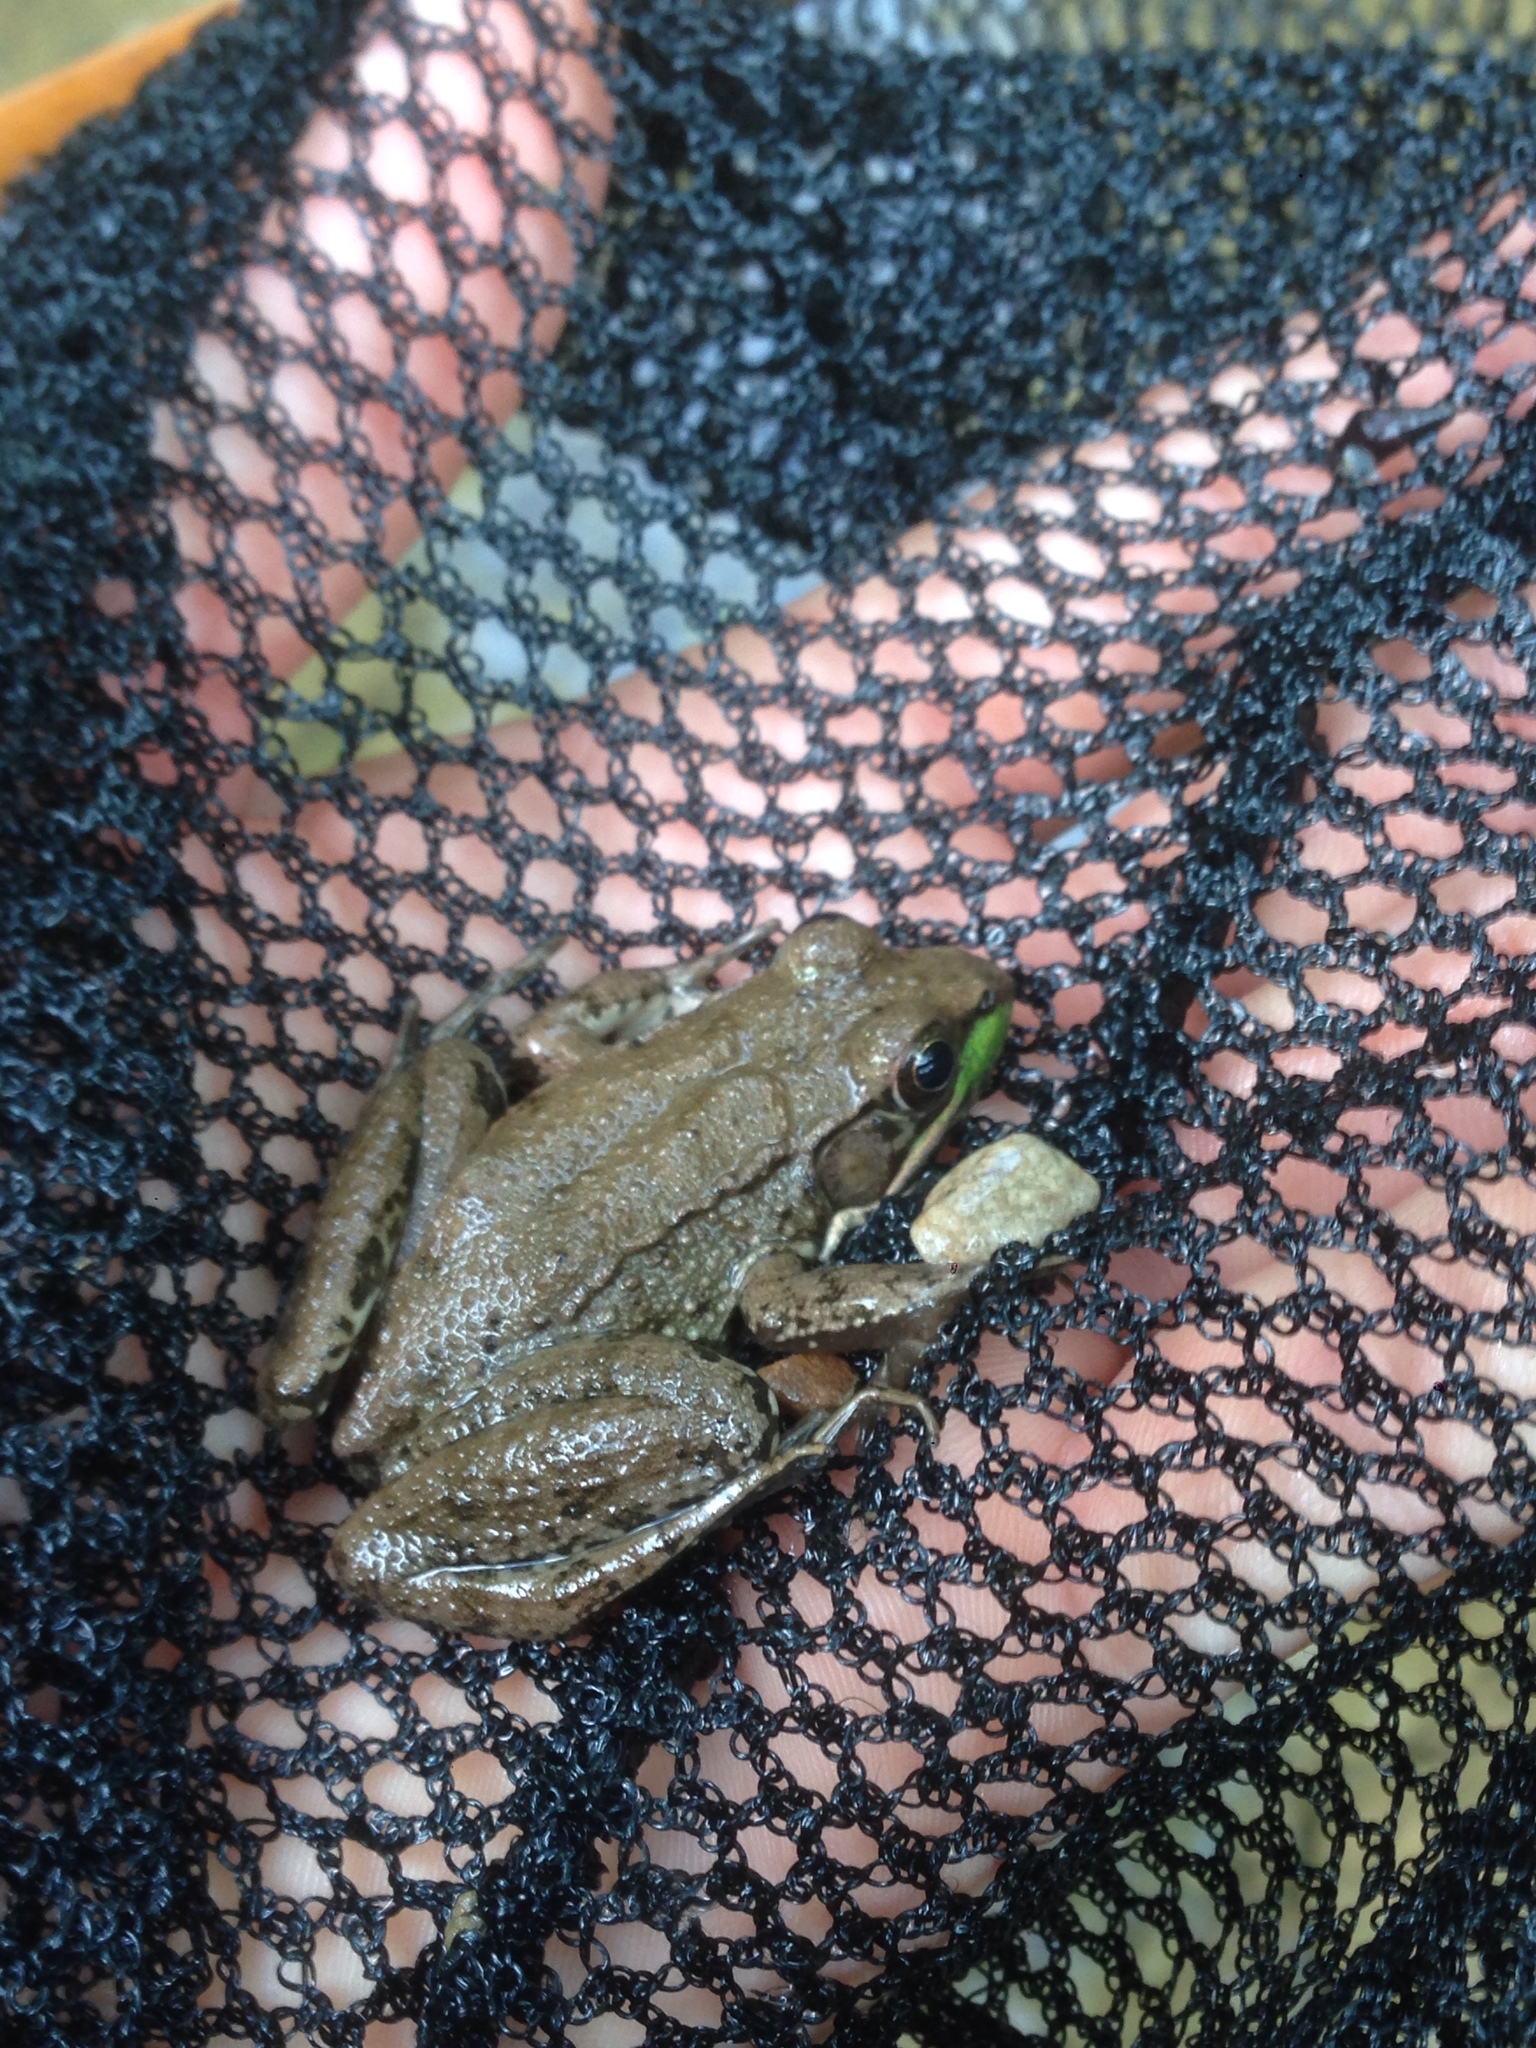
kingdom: Animalia
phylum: Chordata
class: Amphibia
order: Anura
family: Ranidae
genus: Lithobates
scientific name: Lithobates clamitans
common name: Green frog
